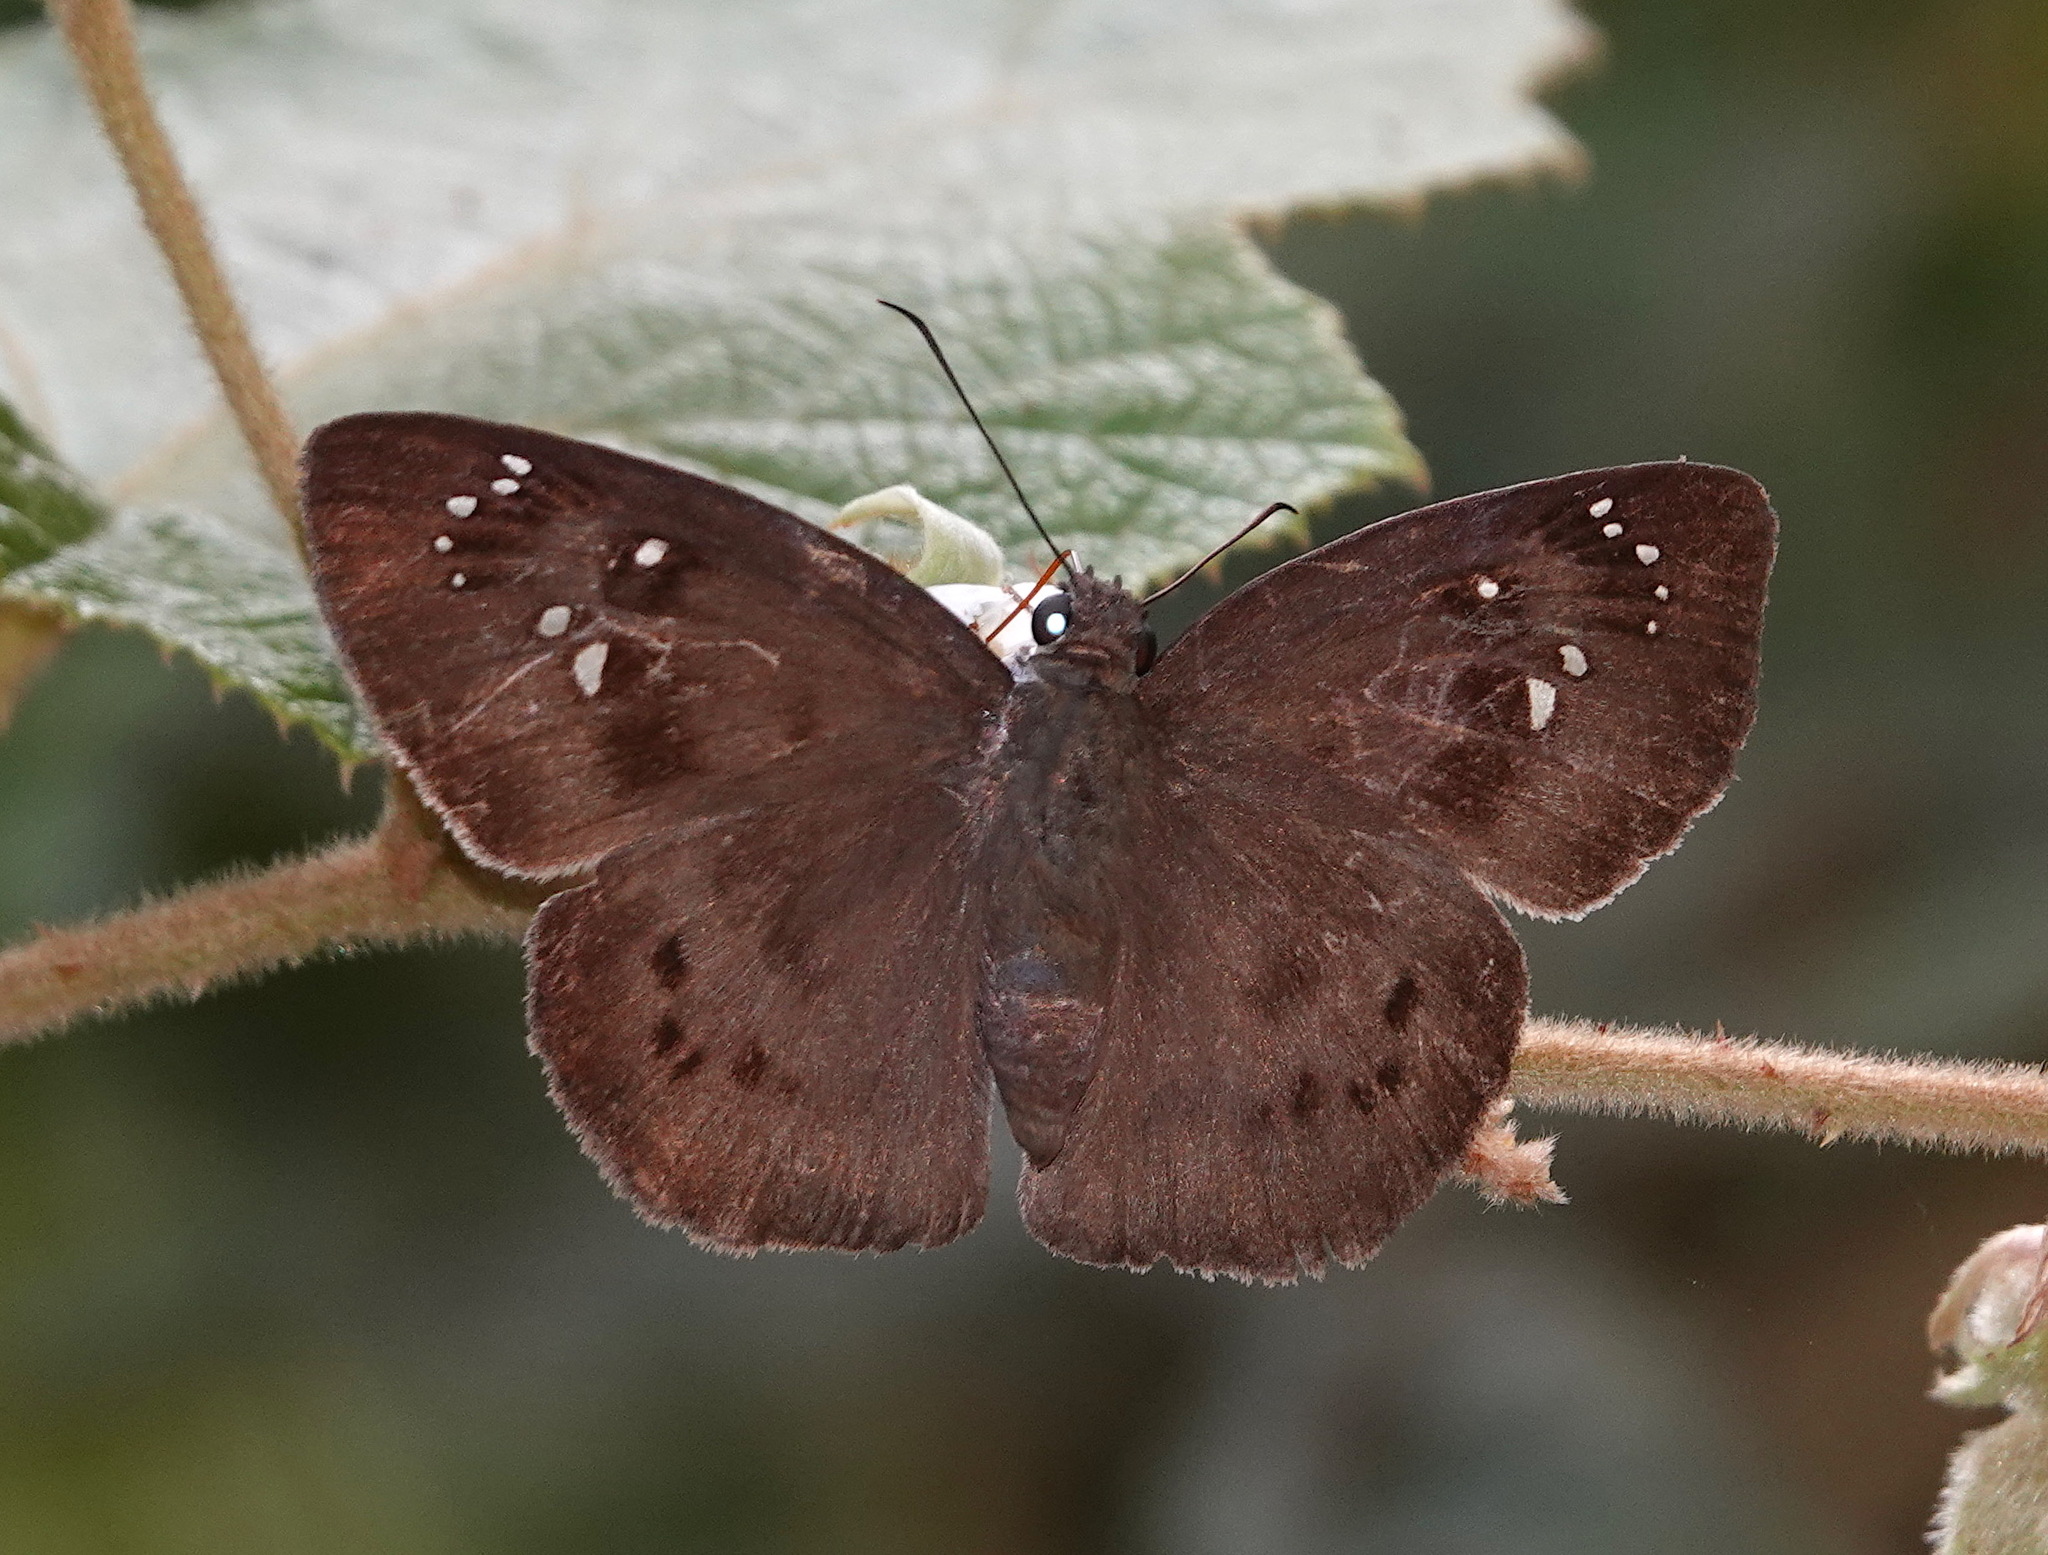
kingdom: Animalia
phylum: Arthropoda
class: Insecta
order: Lepidoptera
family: Hesperiidae
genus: Tagiades
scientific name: Tagiades japetus
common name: Pied flat
